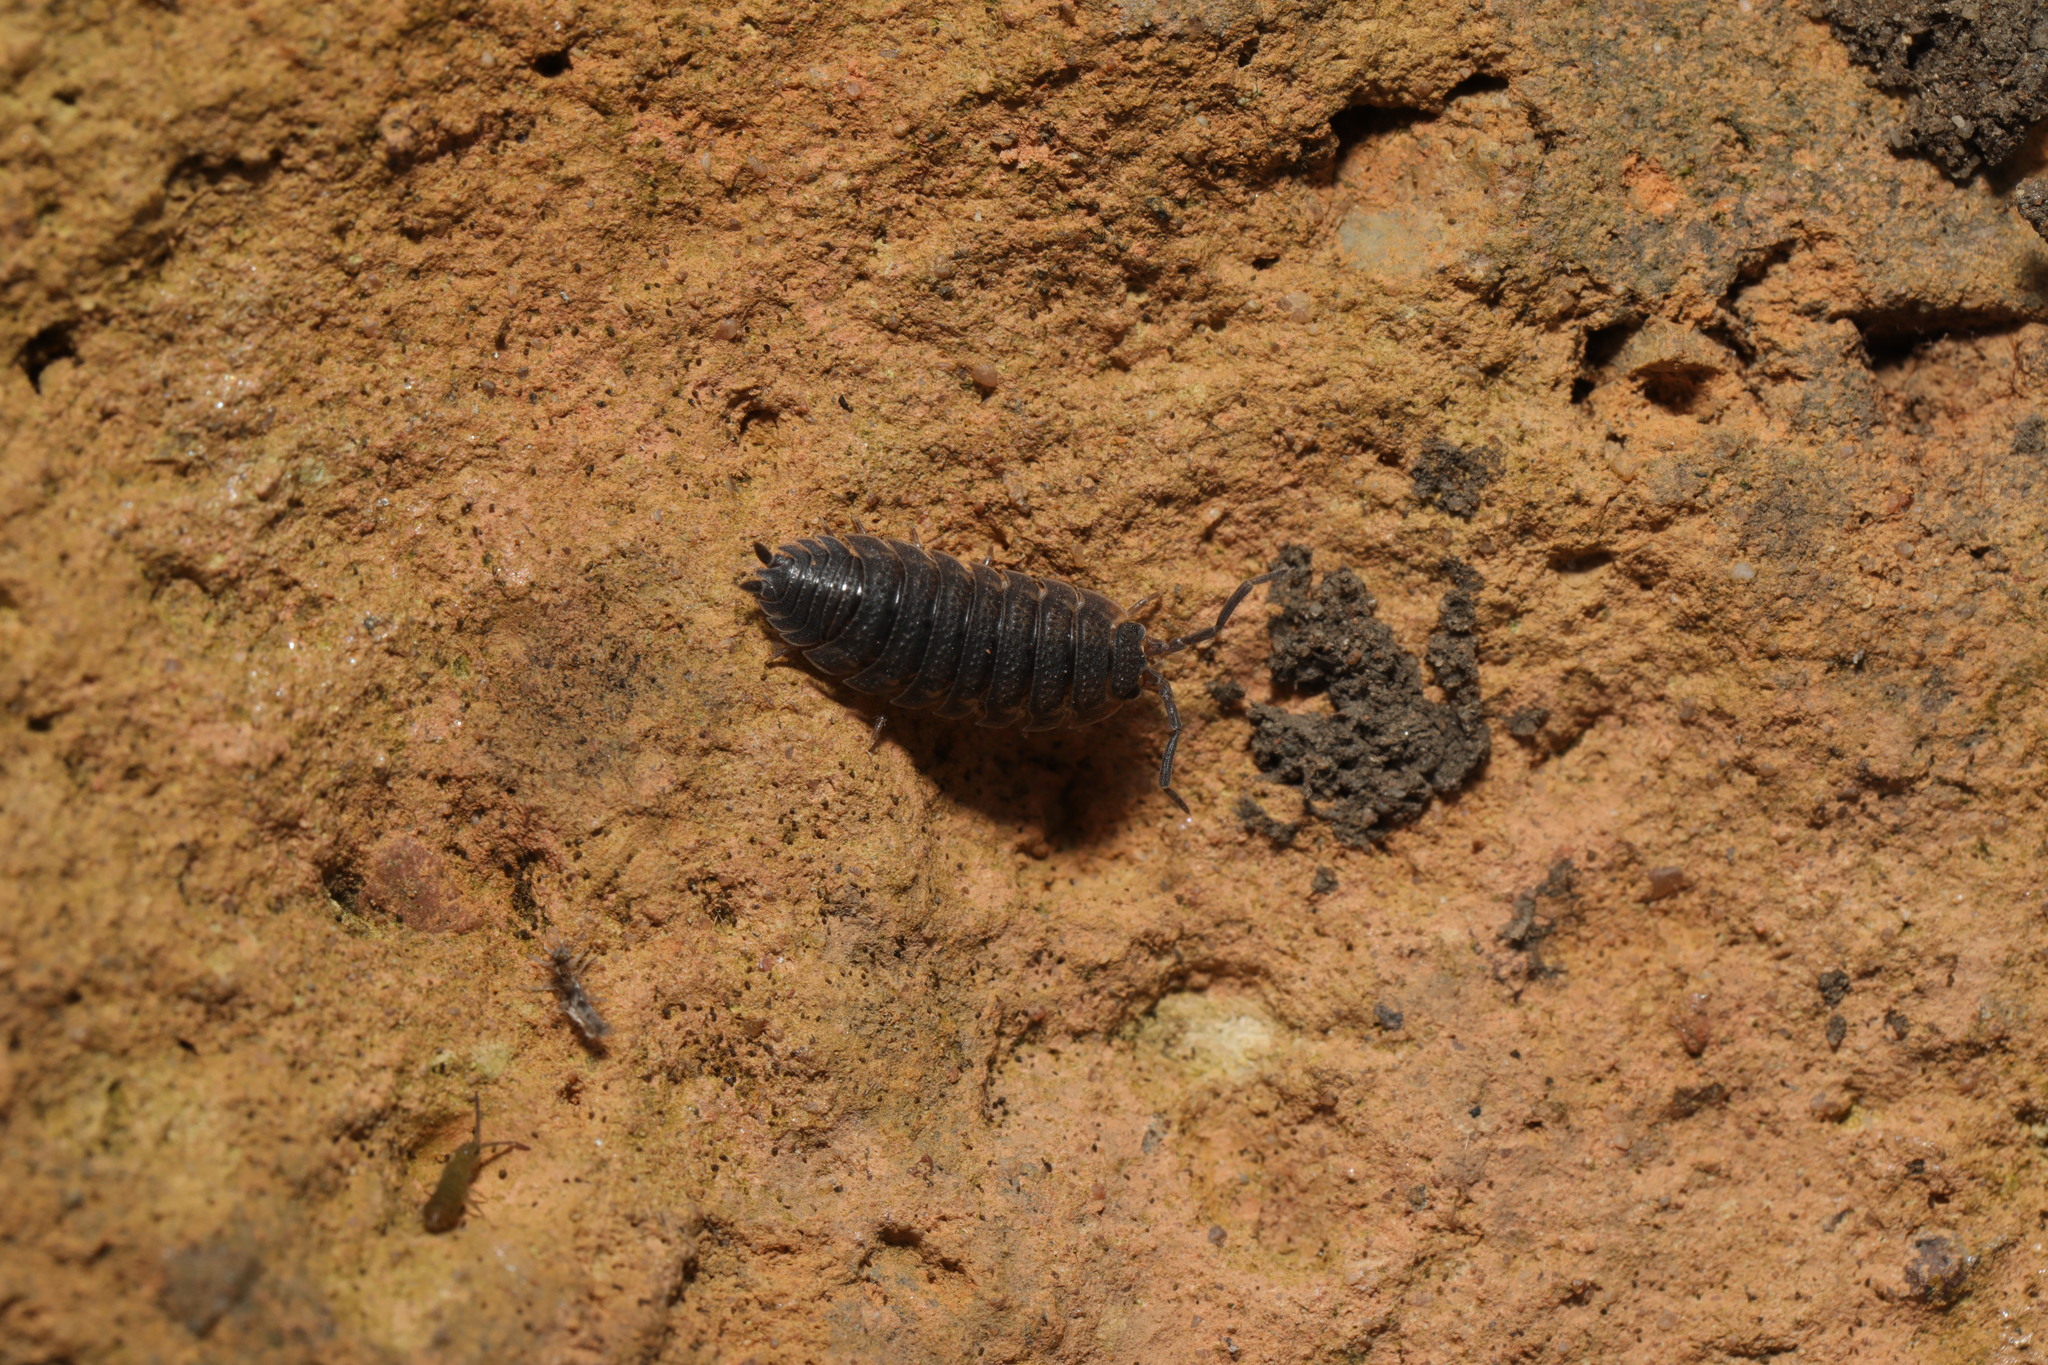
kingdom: Animalia
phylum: Arthropoda
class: Malacostraca
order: Isopoda
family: Porcellionidae
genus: Porcellio
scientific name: Porcellio scaber
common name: Common rough woodlouse
